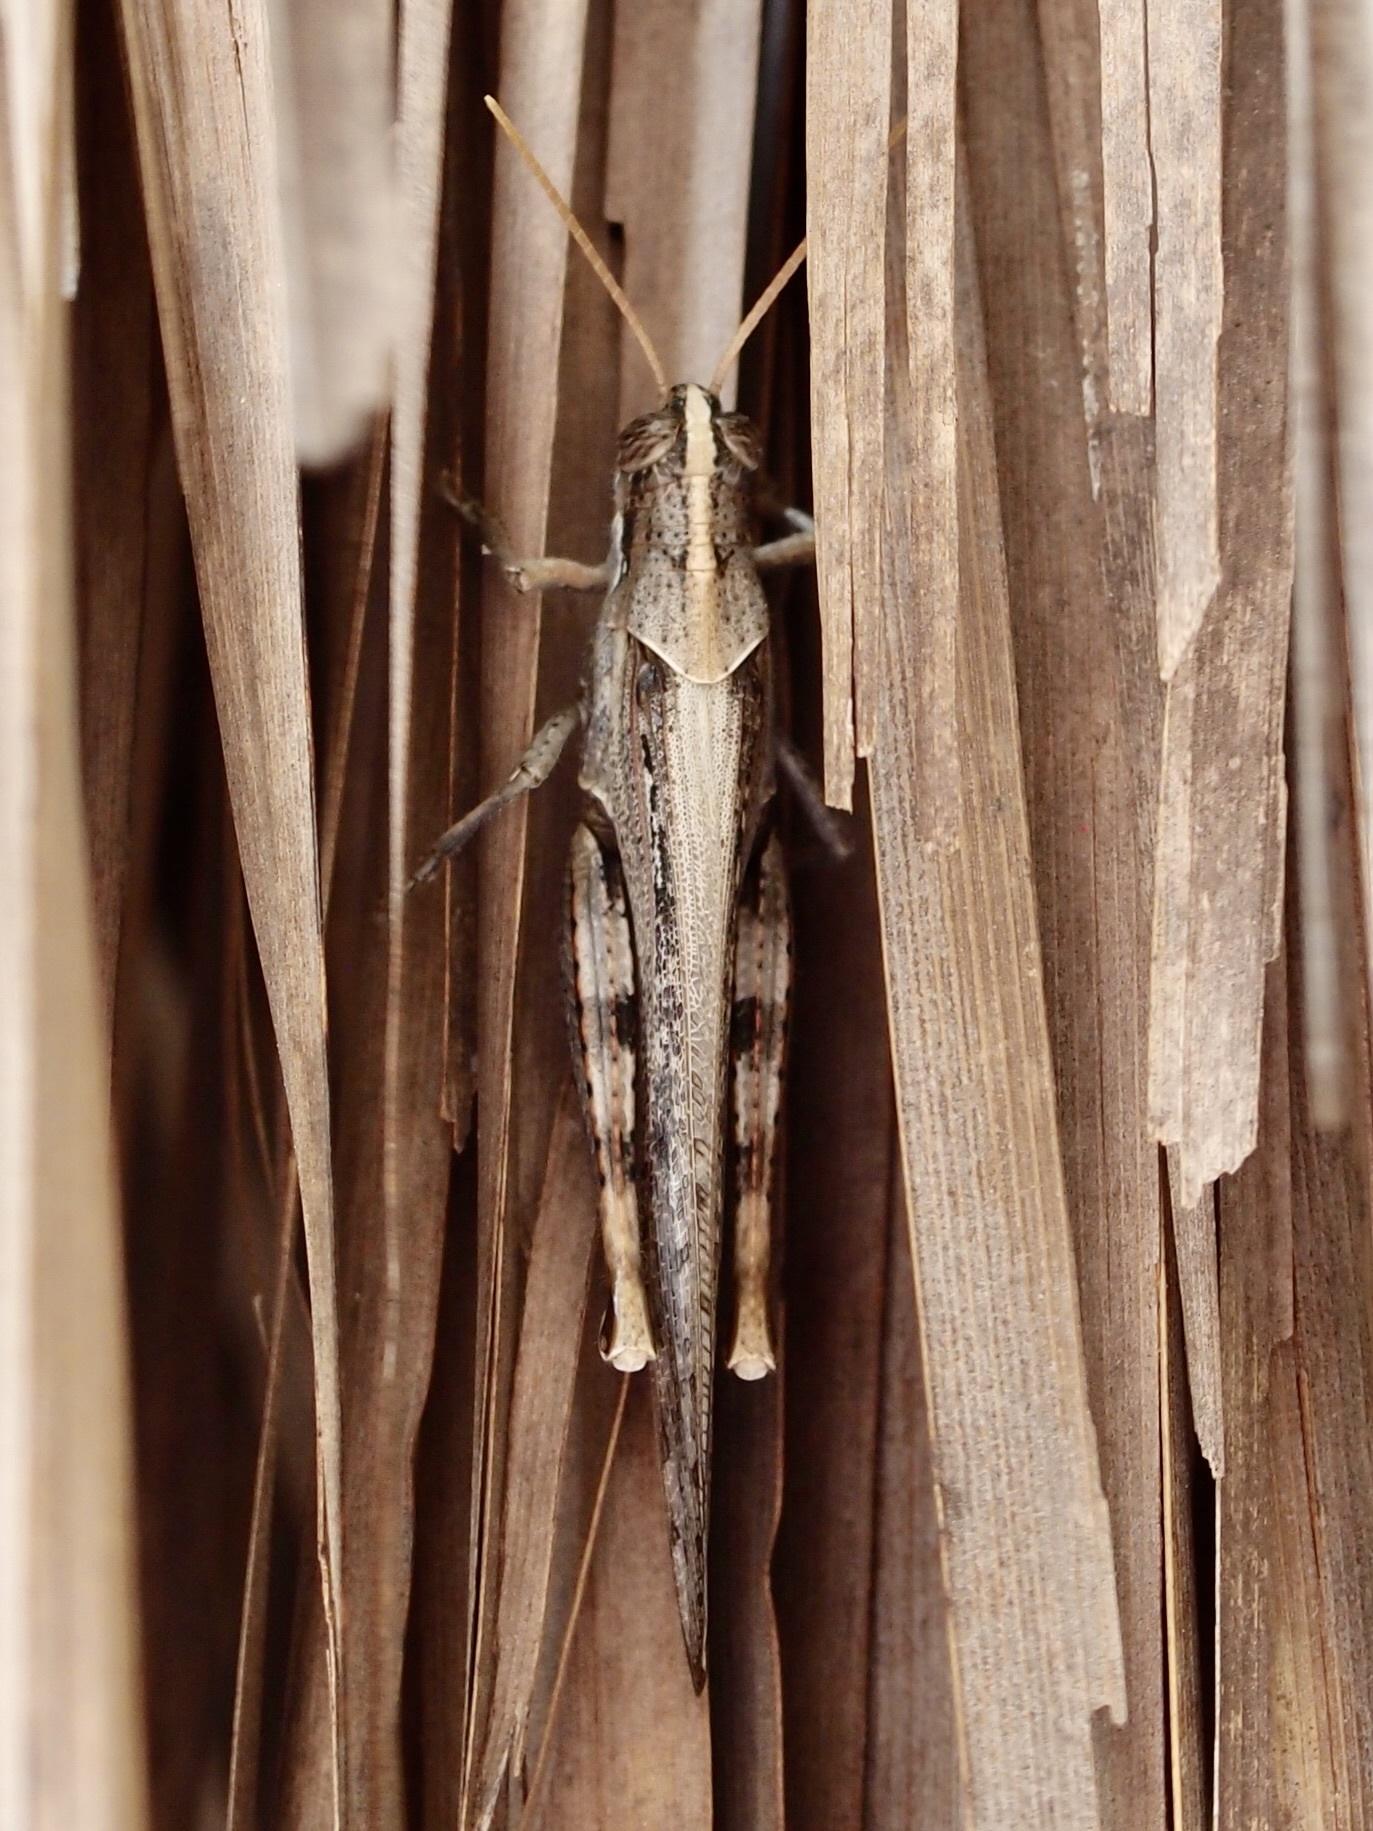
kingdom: Animalia
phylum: Arthropoda
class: Insecta
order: Orthoptera
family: Acrididae
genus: Schistocerca
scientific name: Schistocerca nitens
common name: Vagrant grasshopper
